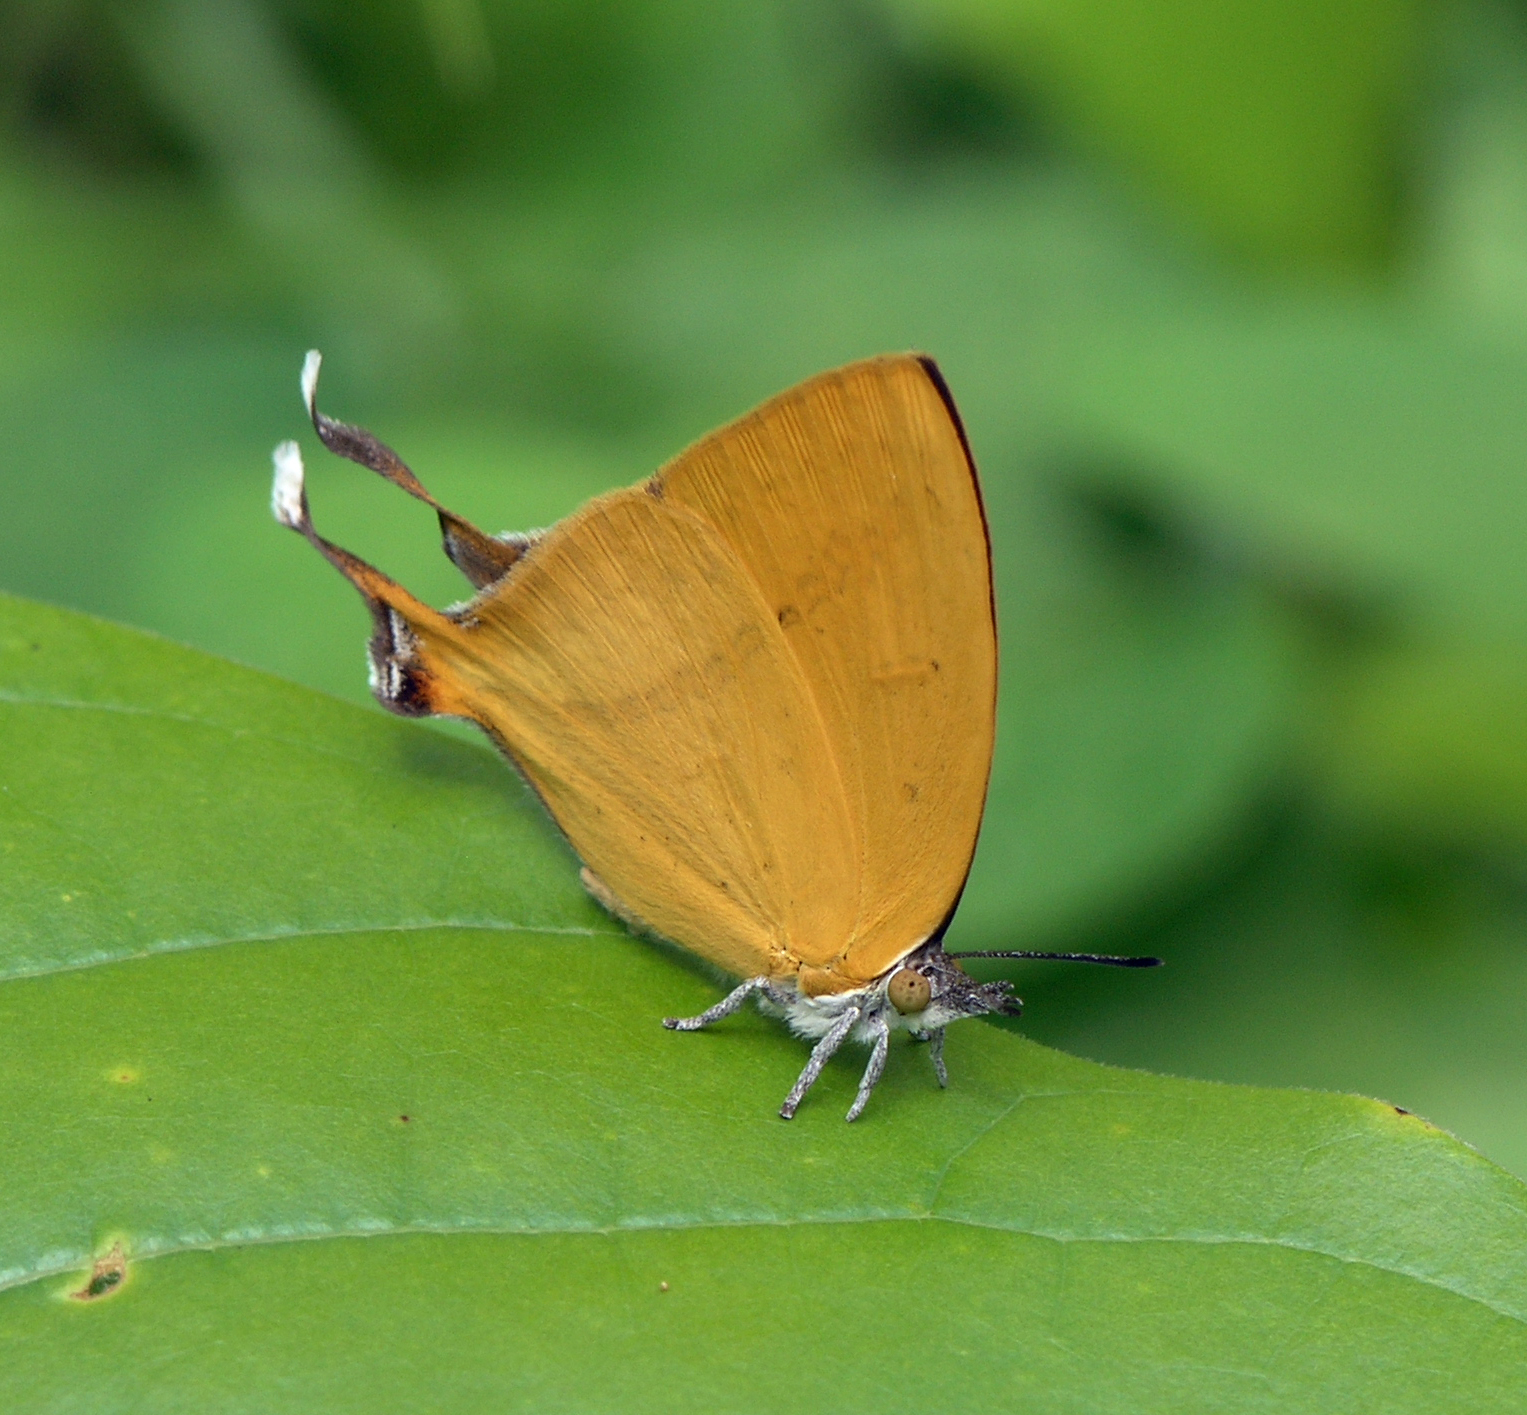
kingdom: Animalia
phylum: Arthropoda
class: Insecta
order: Lepidoptera
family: Lycaenidae
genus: Loxura
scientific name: Loxura atymnus
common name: Common yamfly
